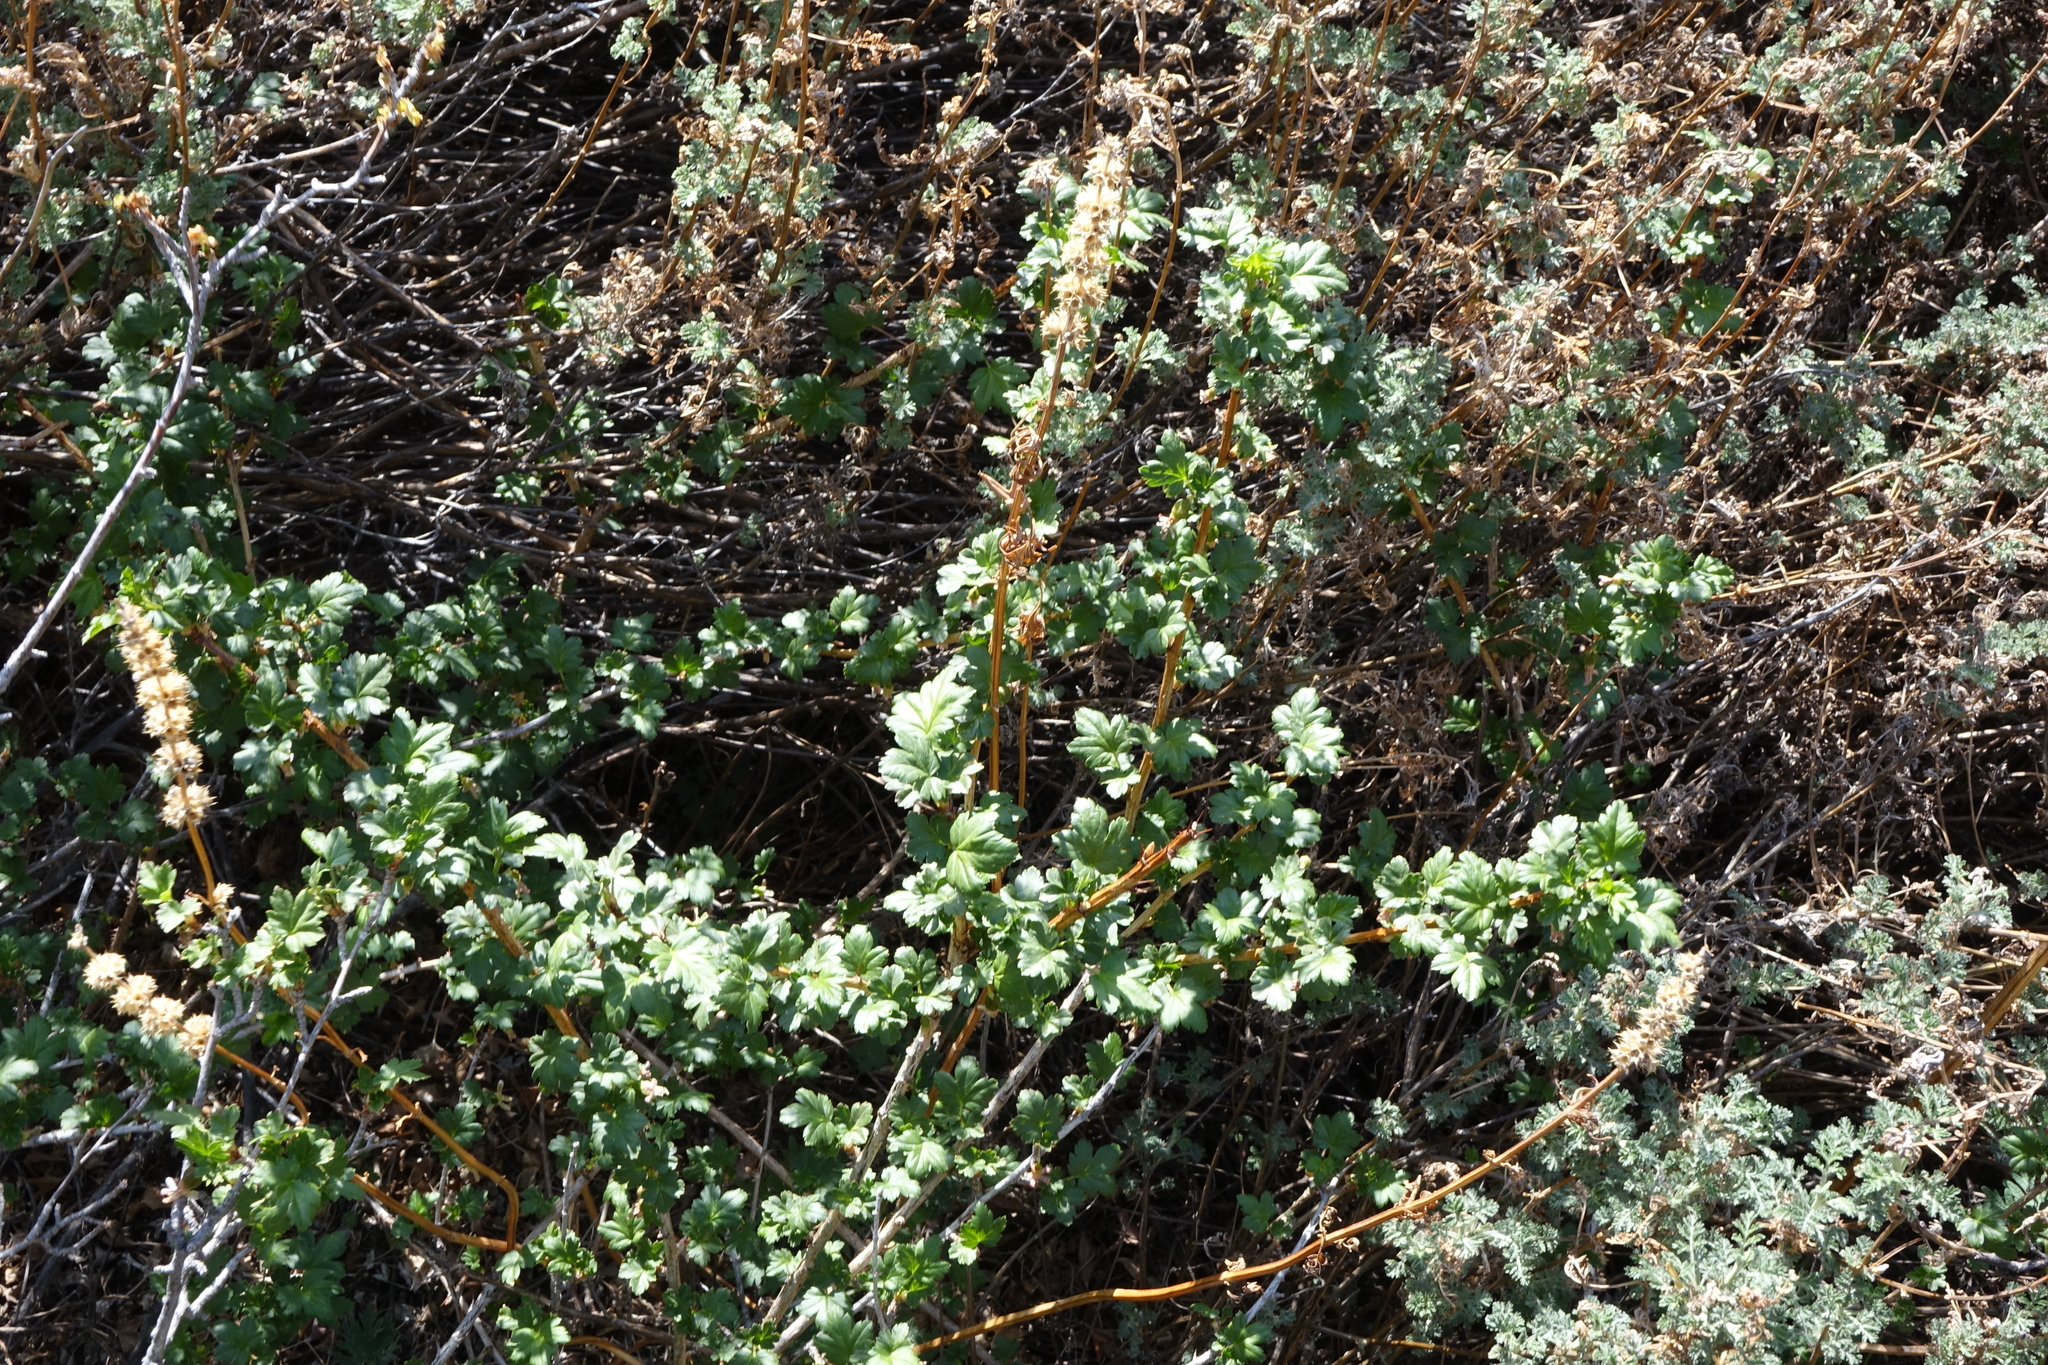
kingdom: Plantae
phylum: Tracheophyta
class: Magnoliopsida
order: Saxifragales
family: Grossulariaceae
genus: Ribes
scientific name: Ribes aciculare
